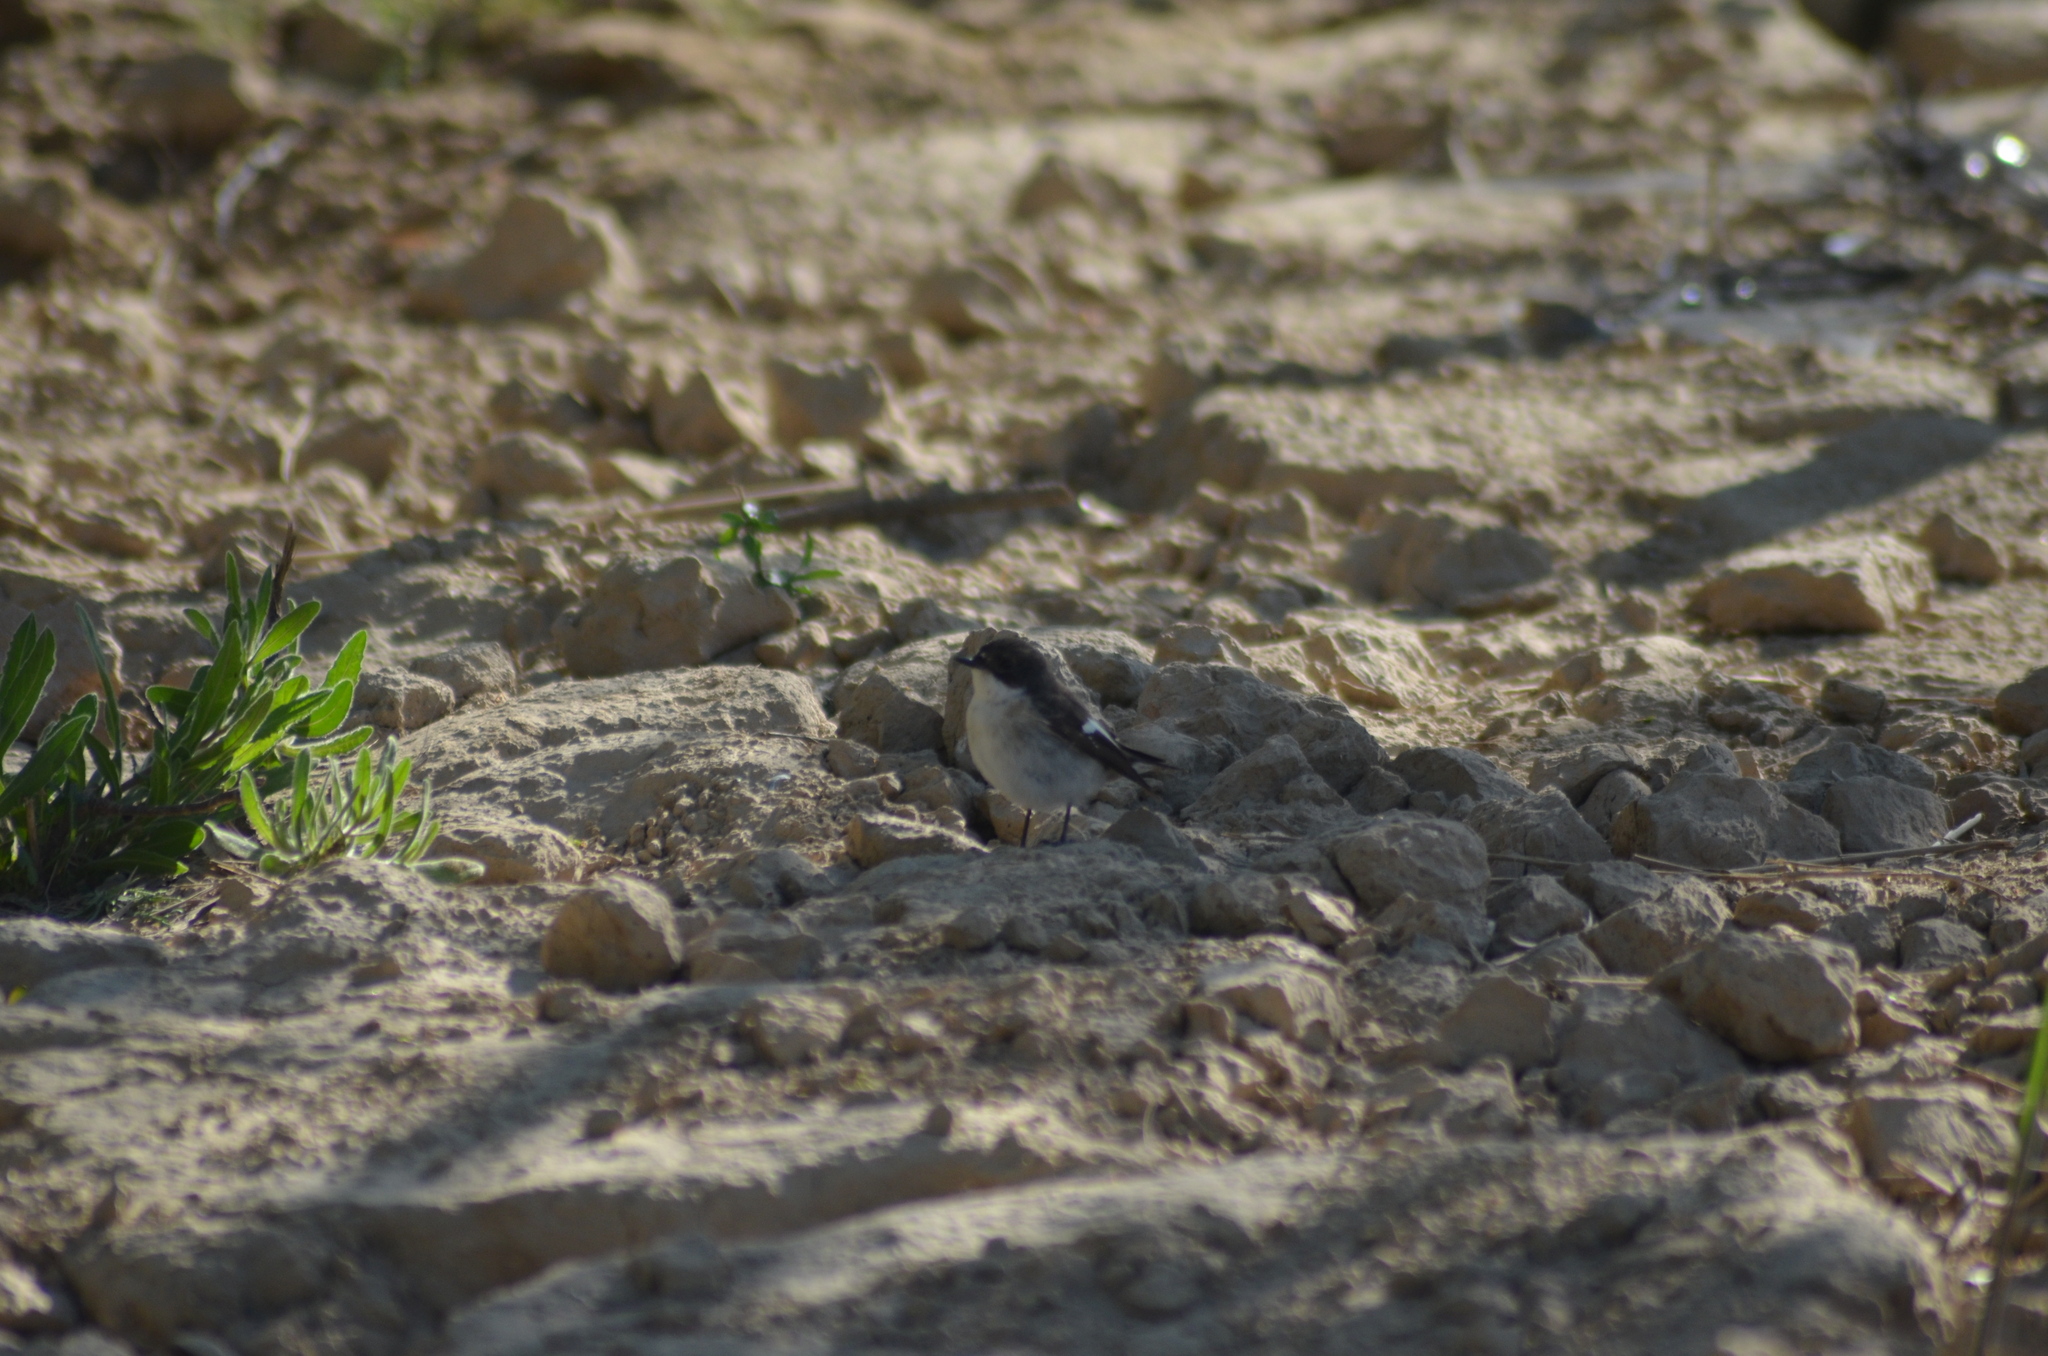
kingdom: Animalia
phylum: Chordata
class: Aves
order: Passeriformes
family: Muscicapidae
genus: Ficedula
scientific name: Ficedula hypoleuca
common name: European pied flycatcher
